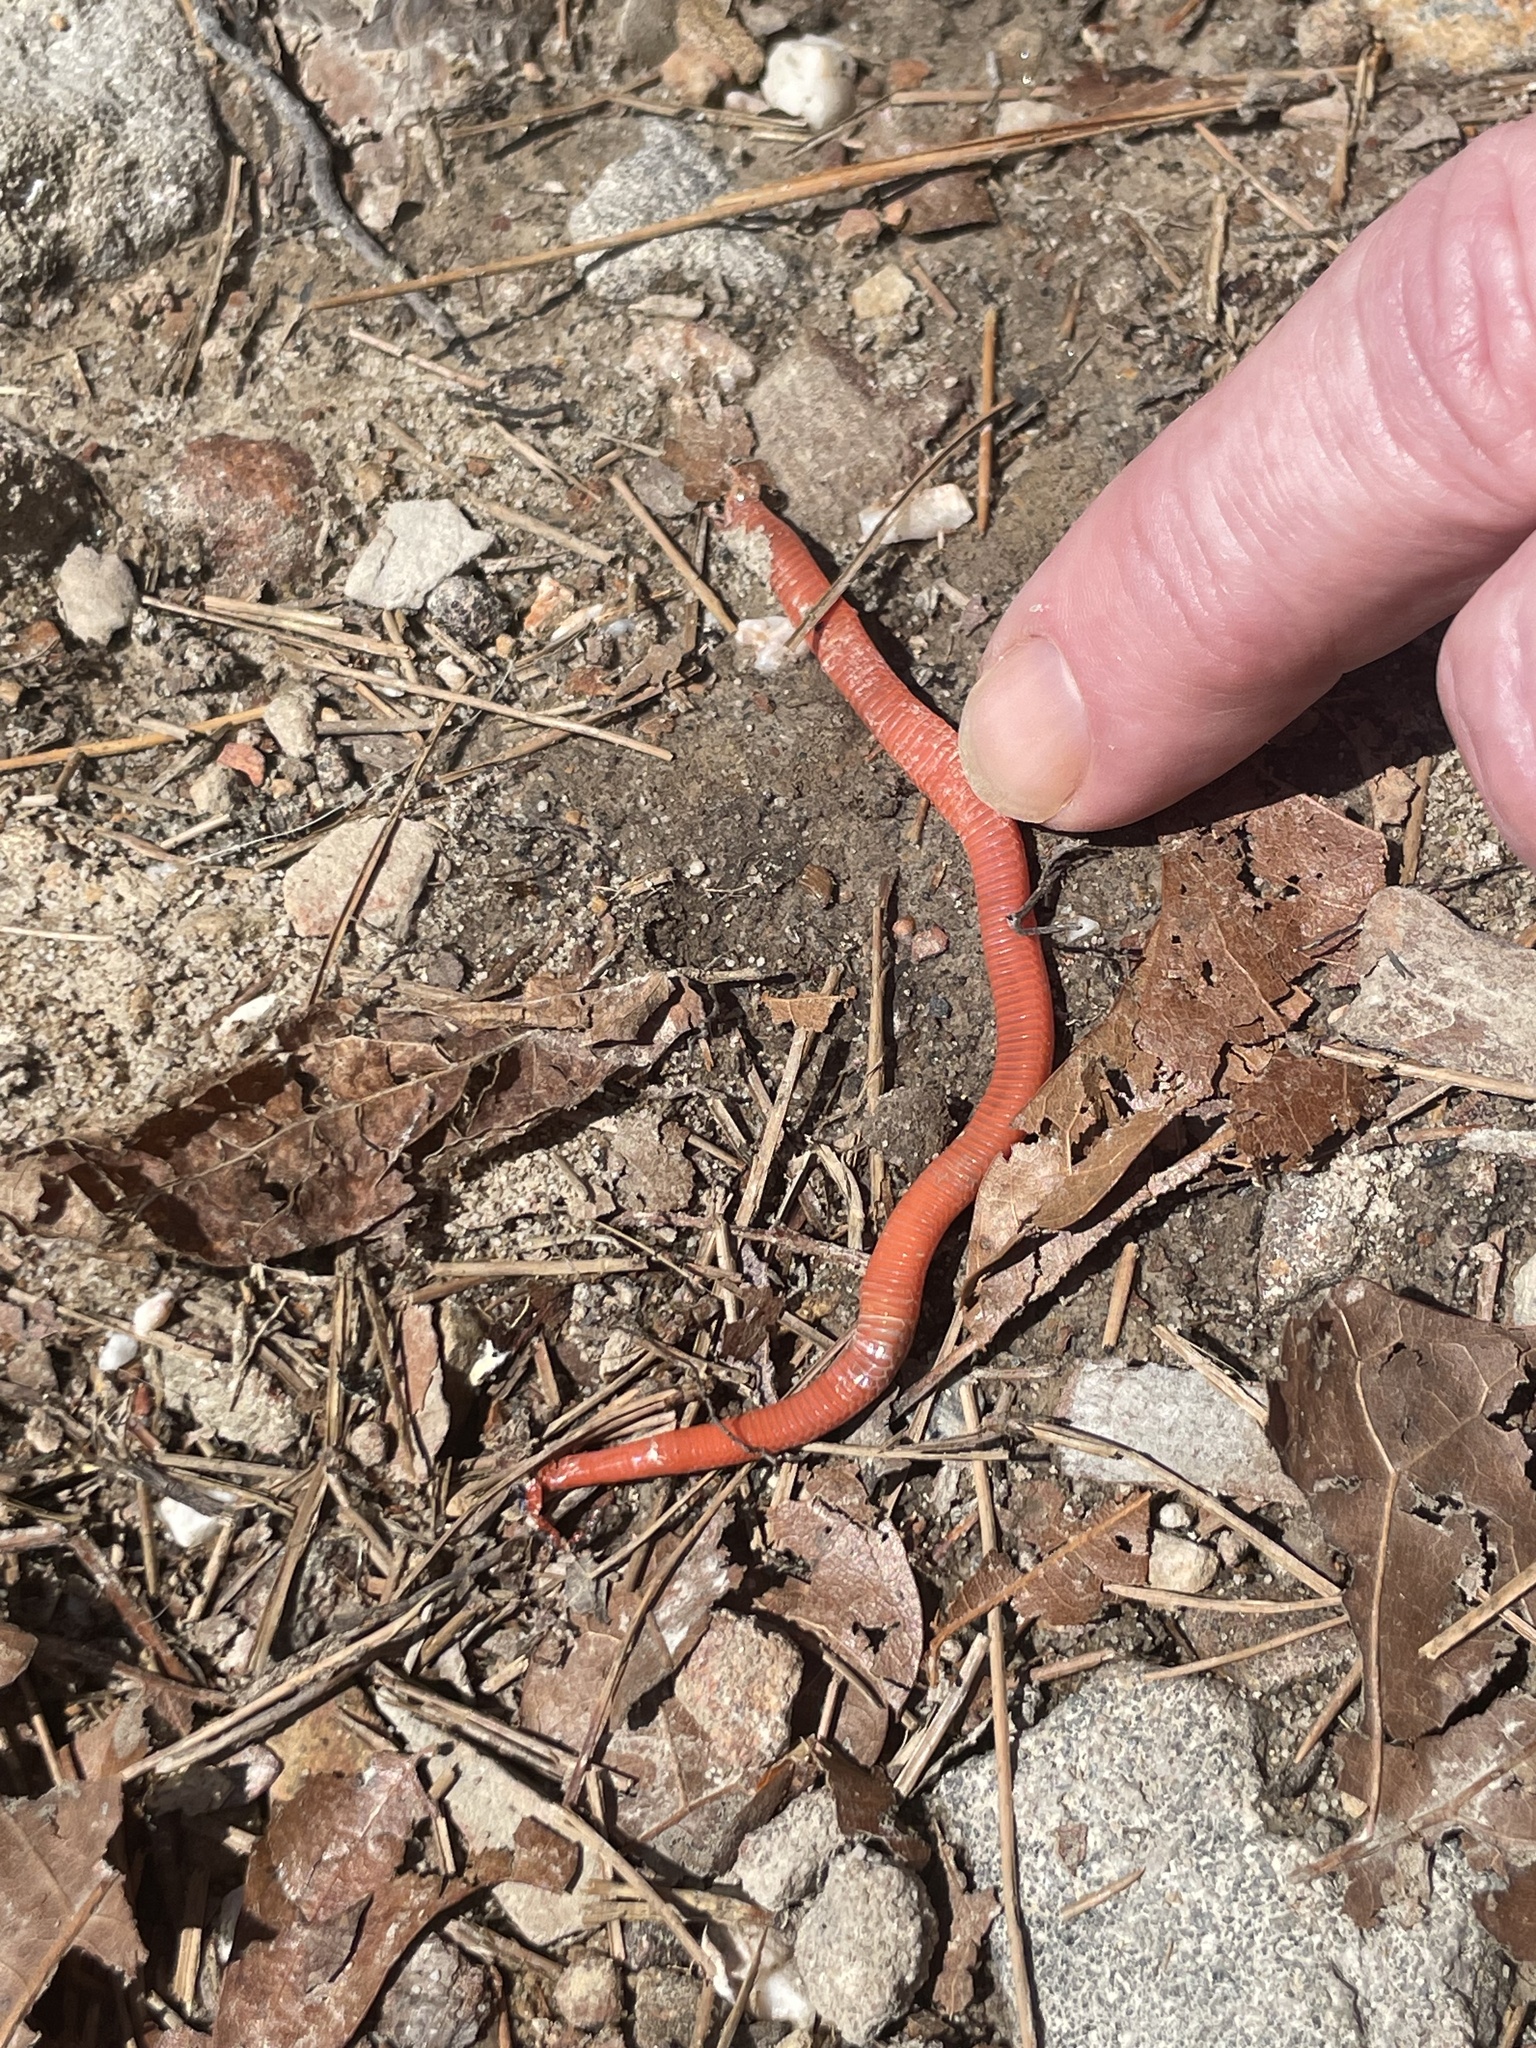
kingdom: Animalia
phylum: Chordata
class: Squamata
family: Colubridae
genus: Carphophis
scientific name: Carphophis vermis
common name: Western worm snake
